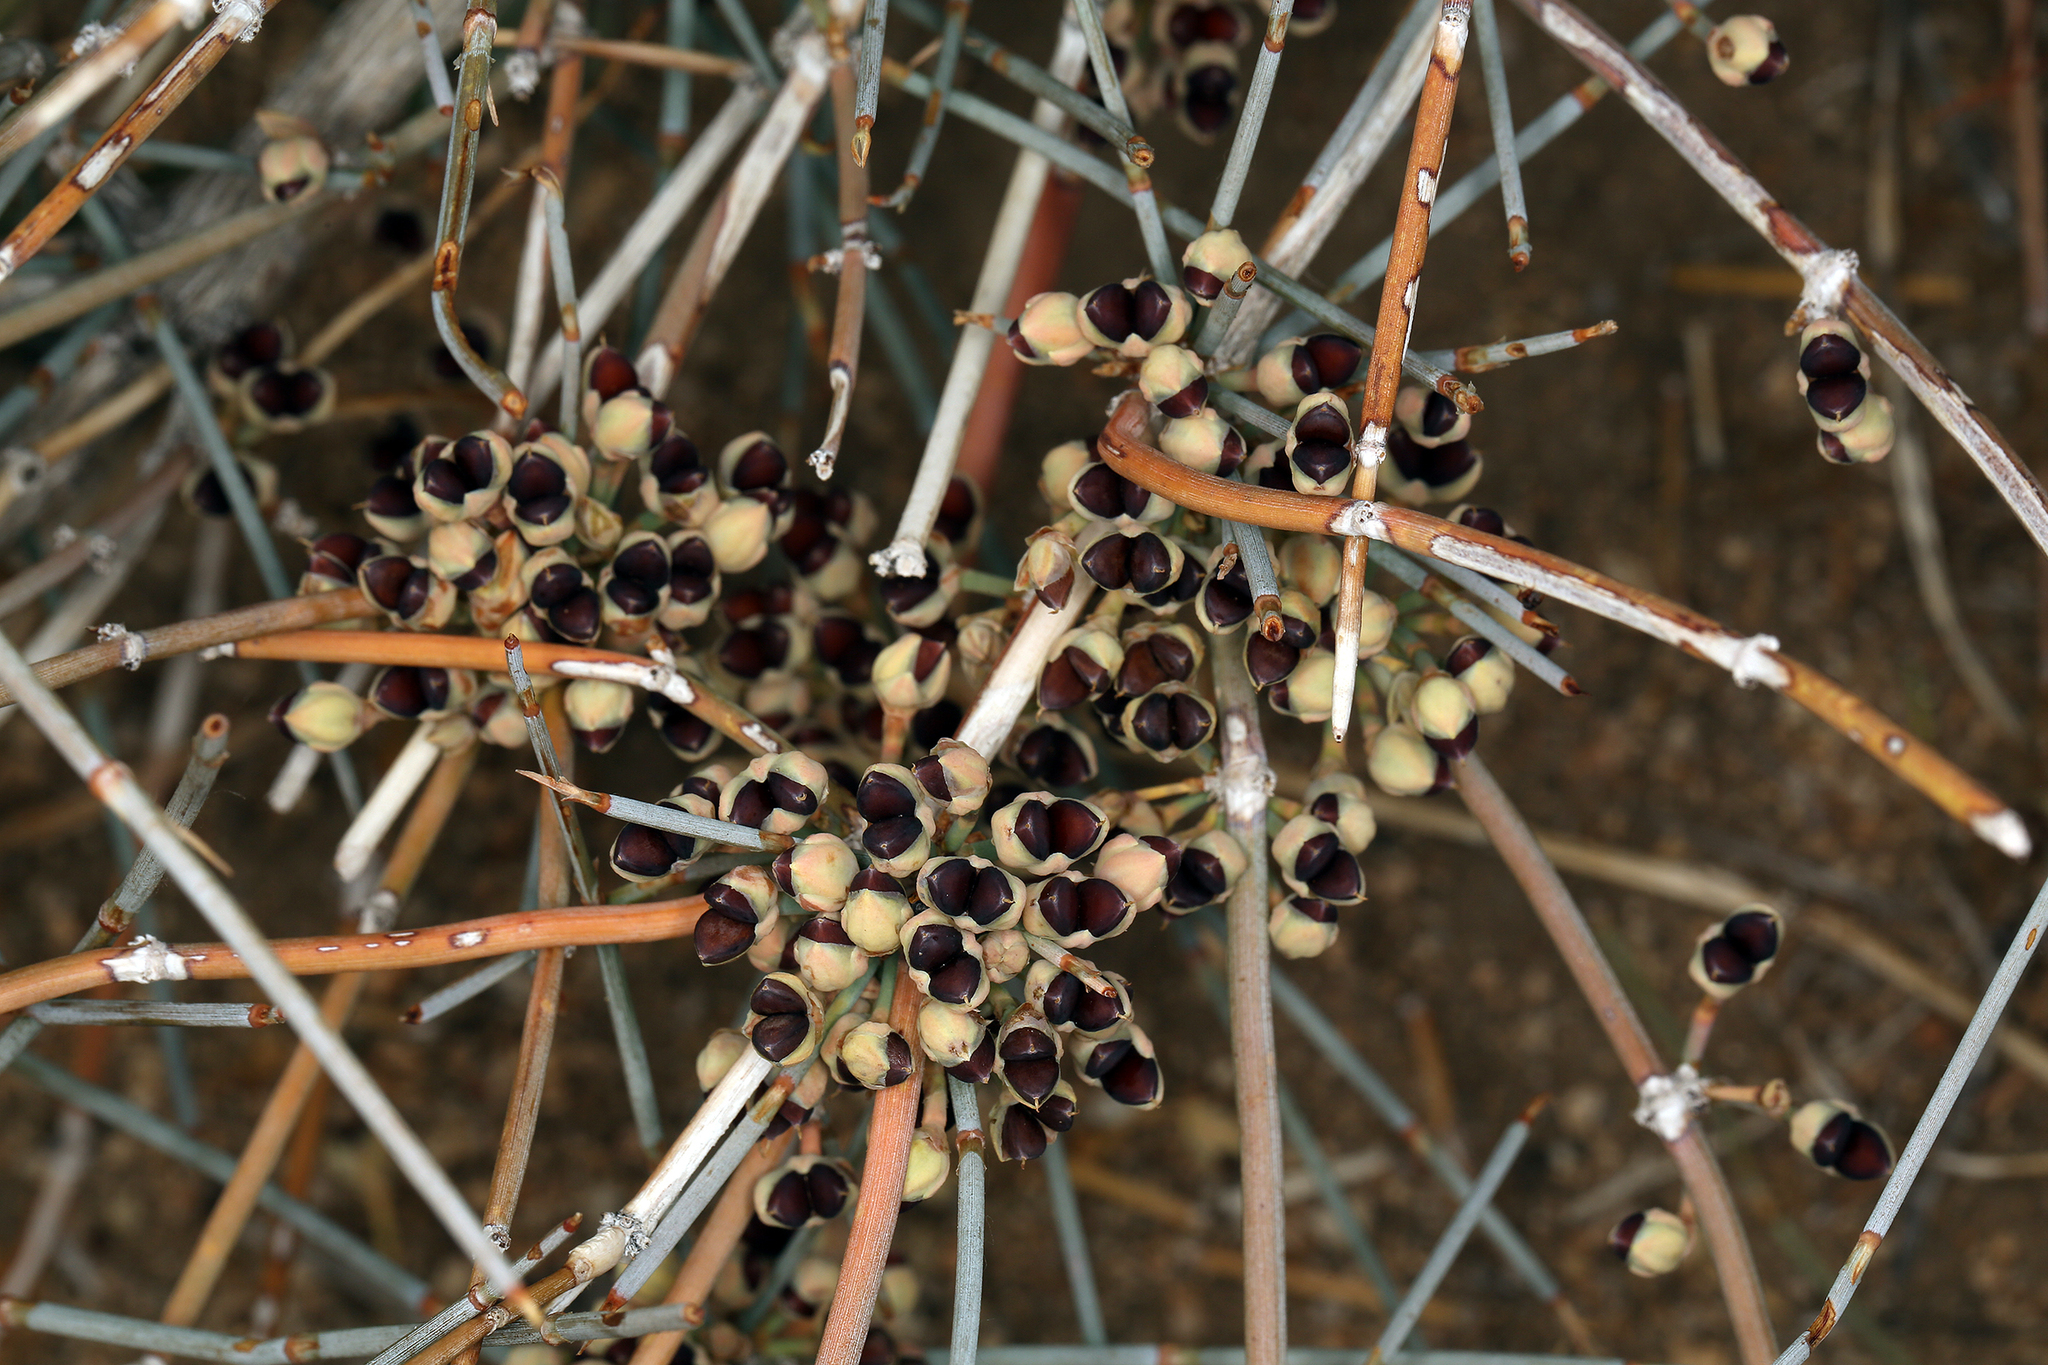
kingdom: Plantae
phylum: Tracheophyta
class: Gnetopsida
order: Ephedrales
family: Ephedraceae
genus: Ephedra
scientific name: Ephedra nevadensis
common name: Gray ephedra
